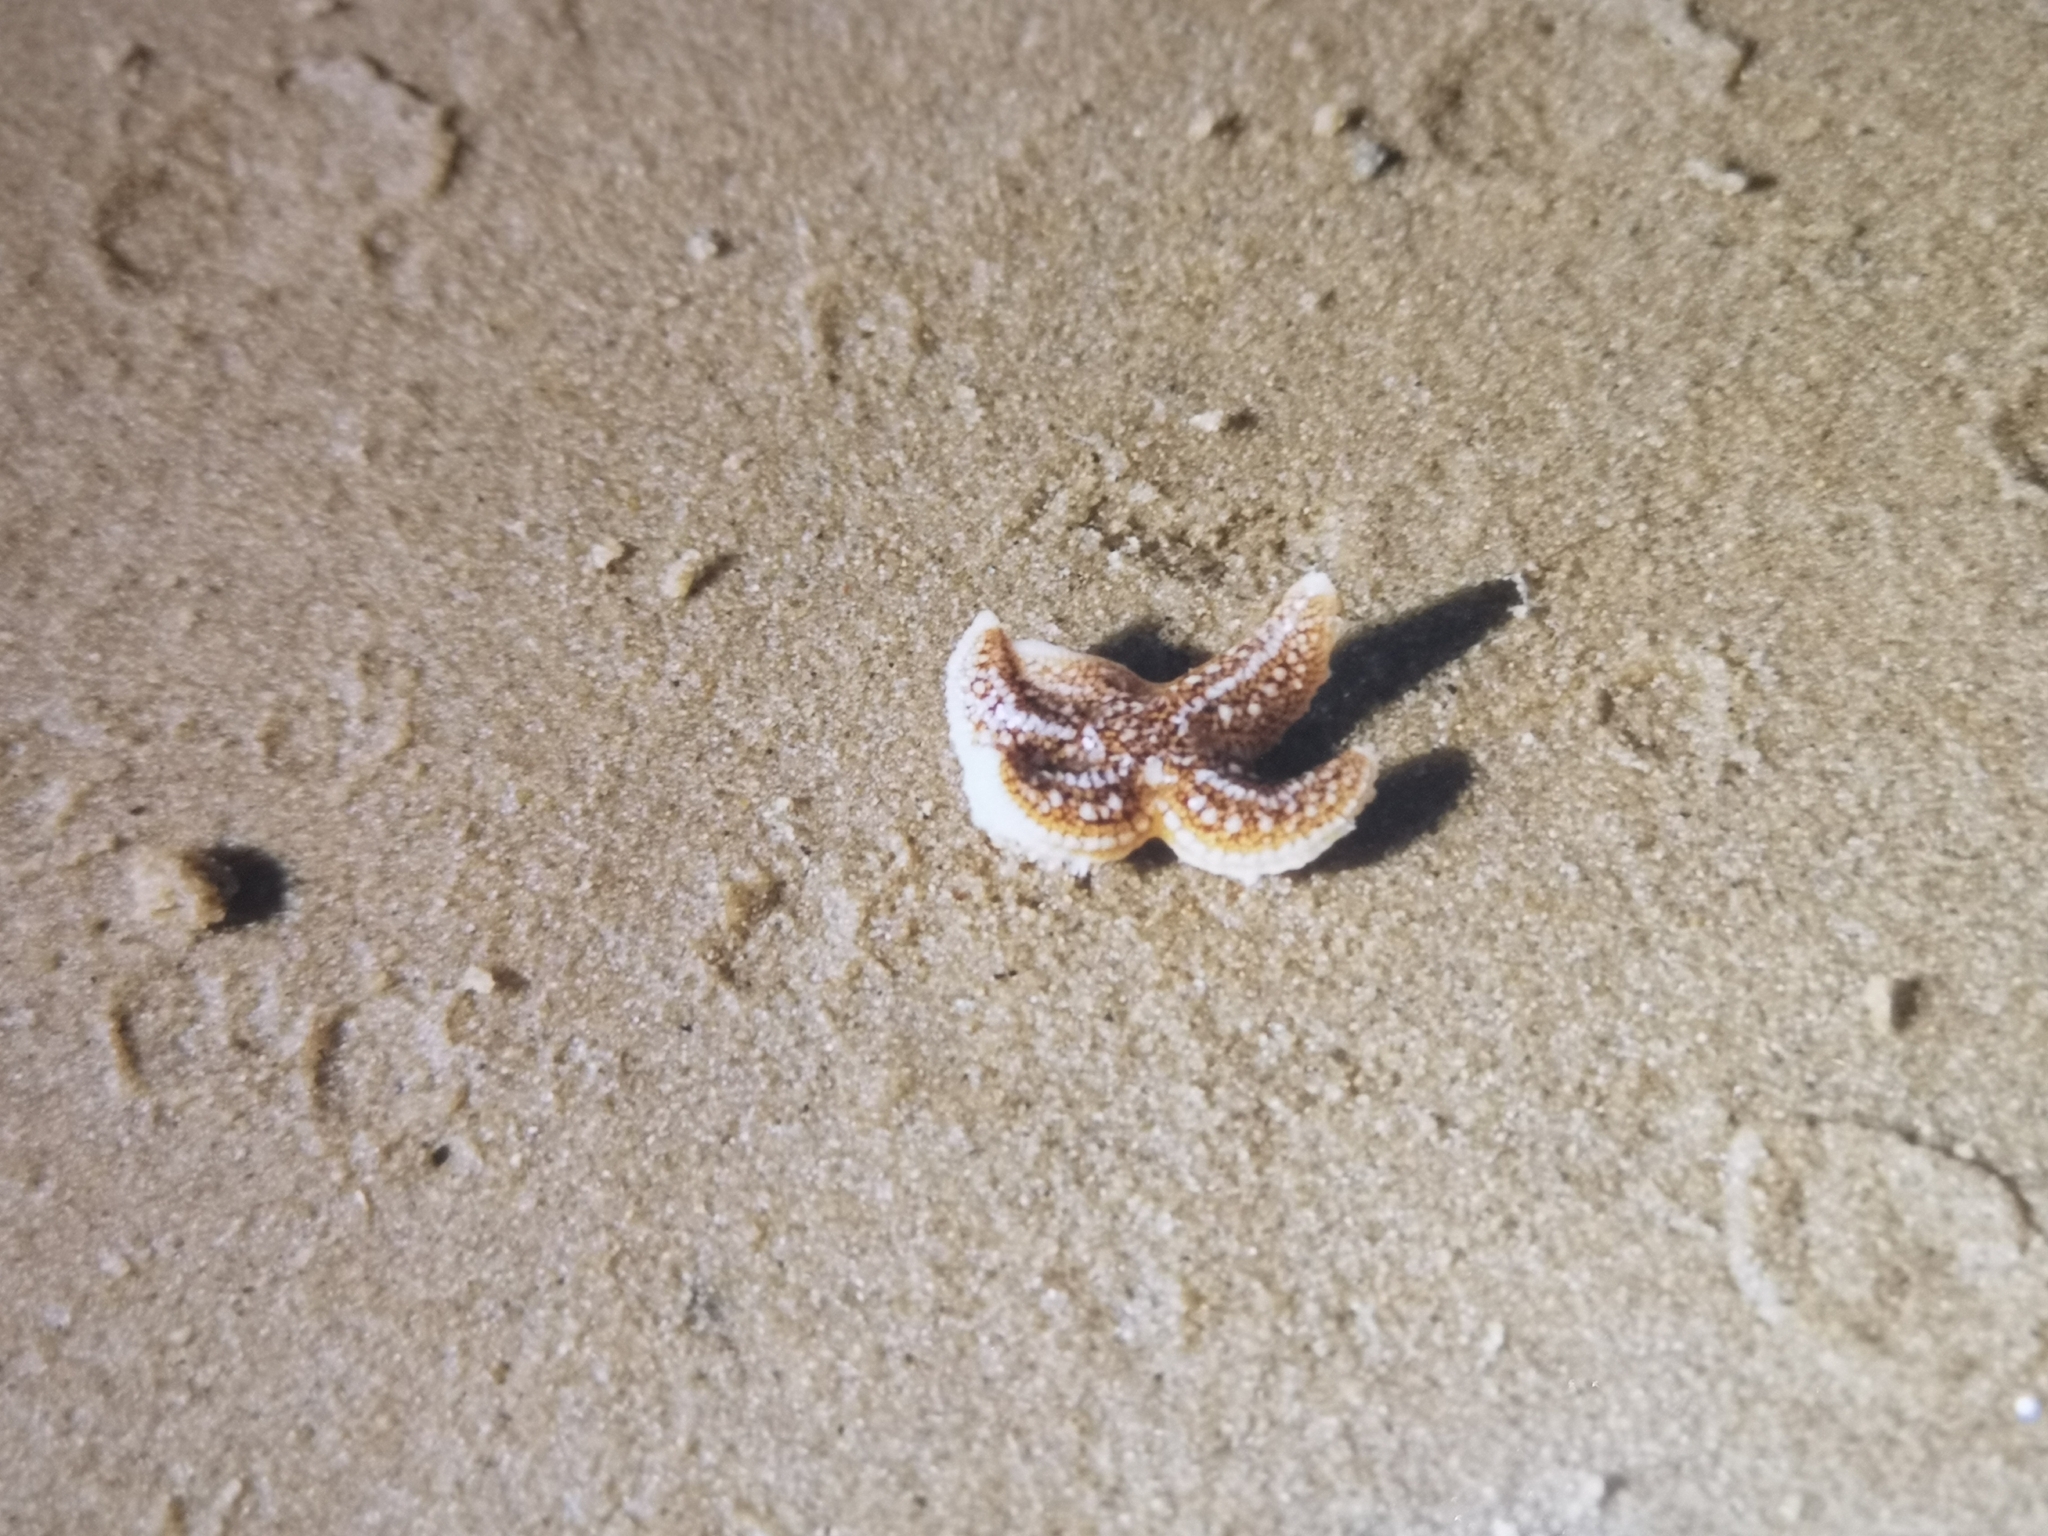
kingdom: Animalia
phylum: Echinodermata
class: Asteroidea
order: Forcipulatida
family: Asteriidae
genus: Asterias
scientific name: Asterias rubens
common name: Common starfish
